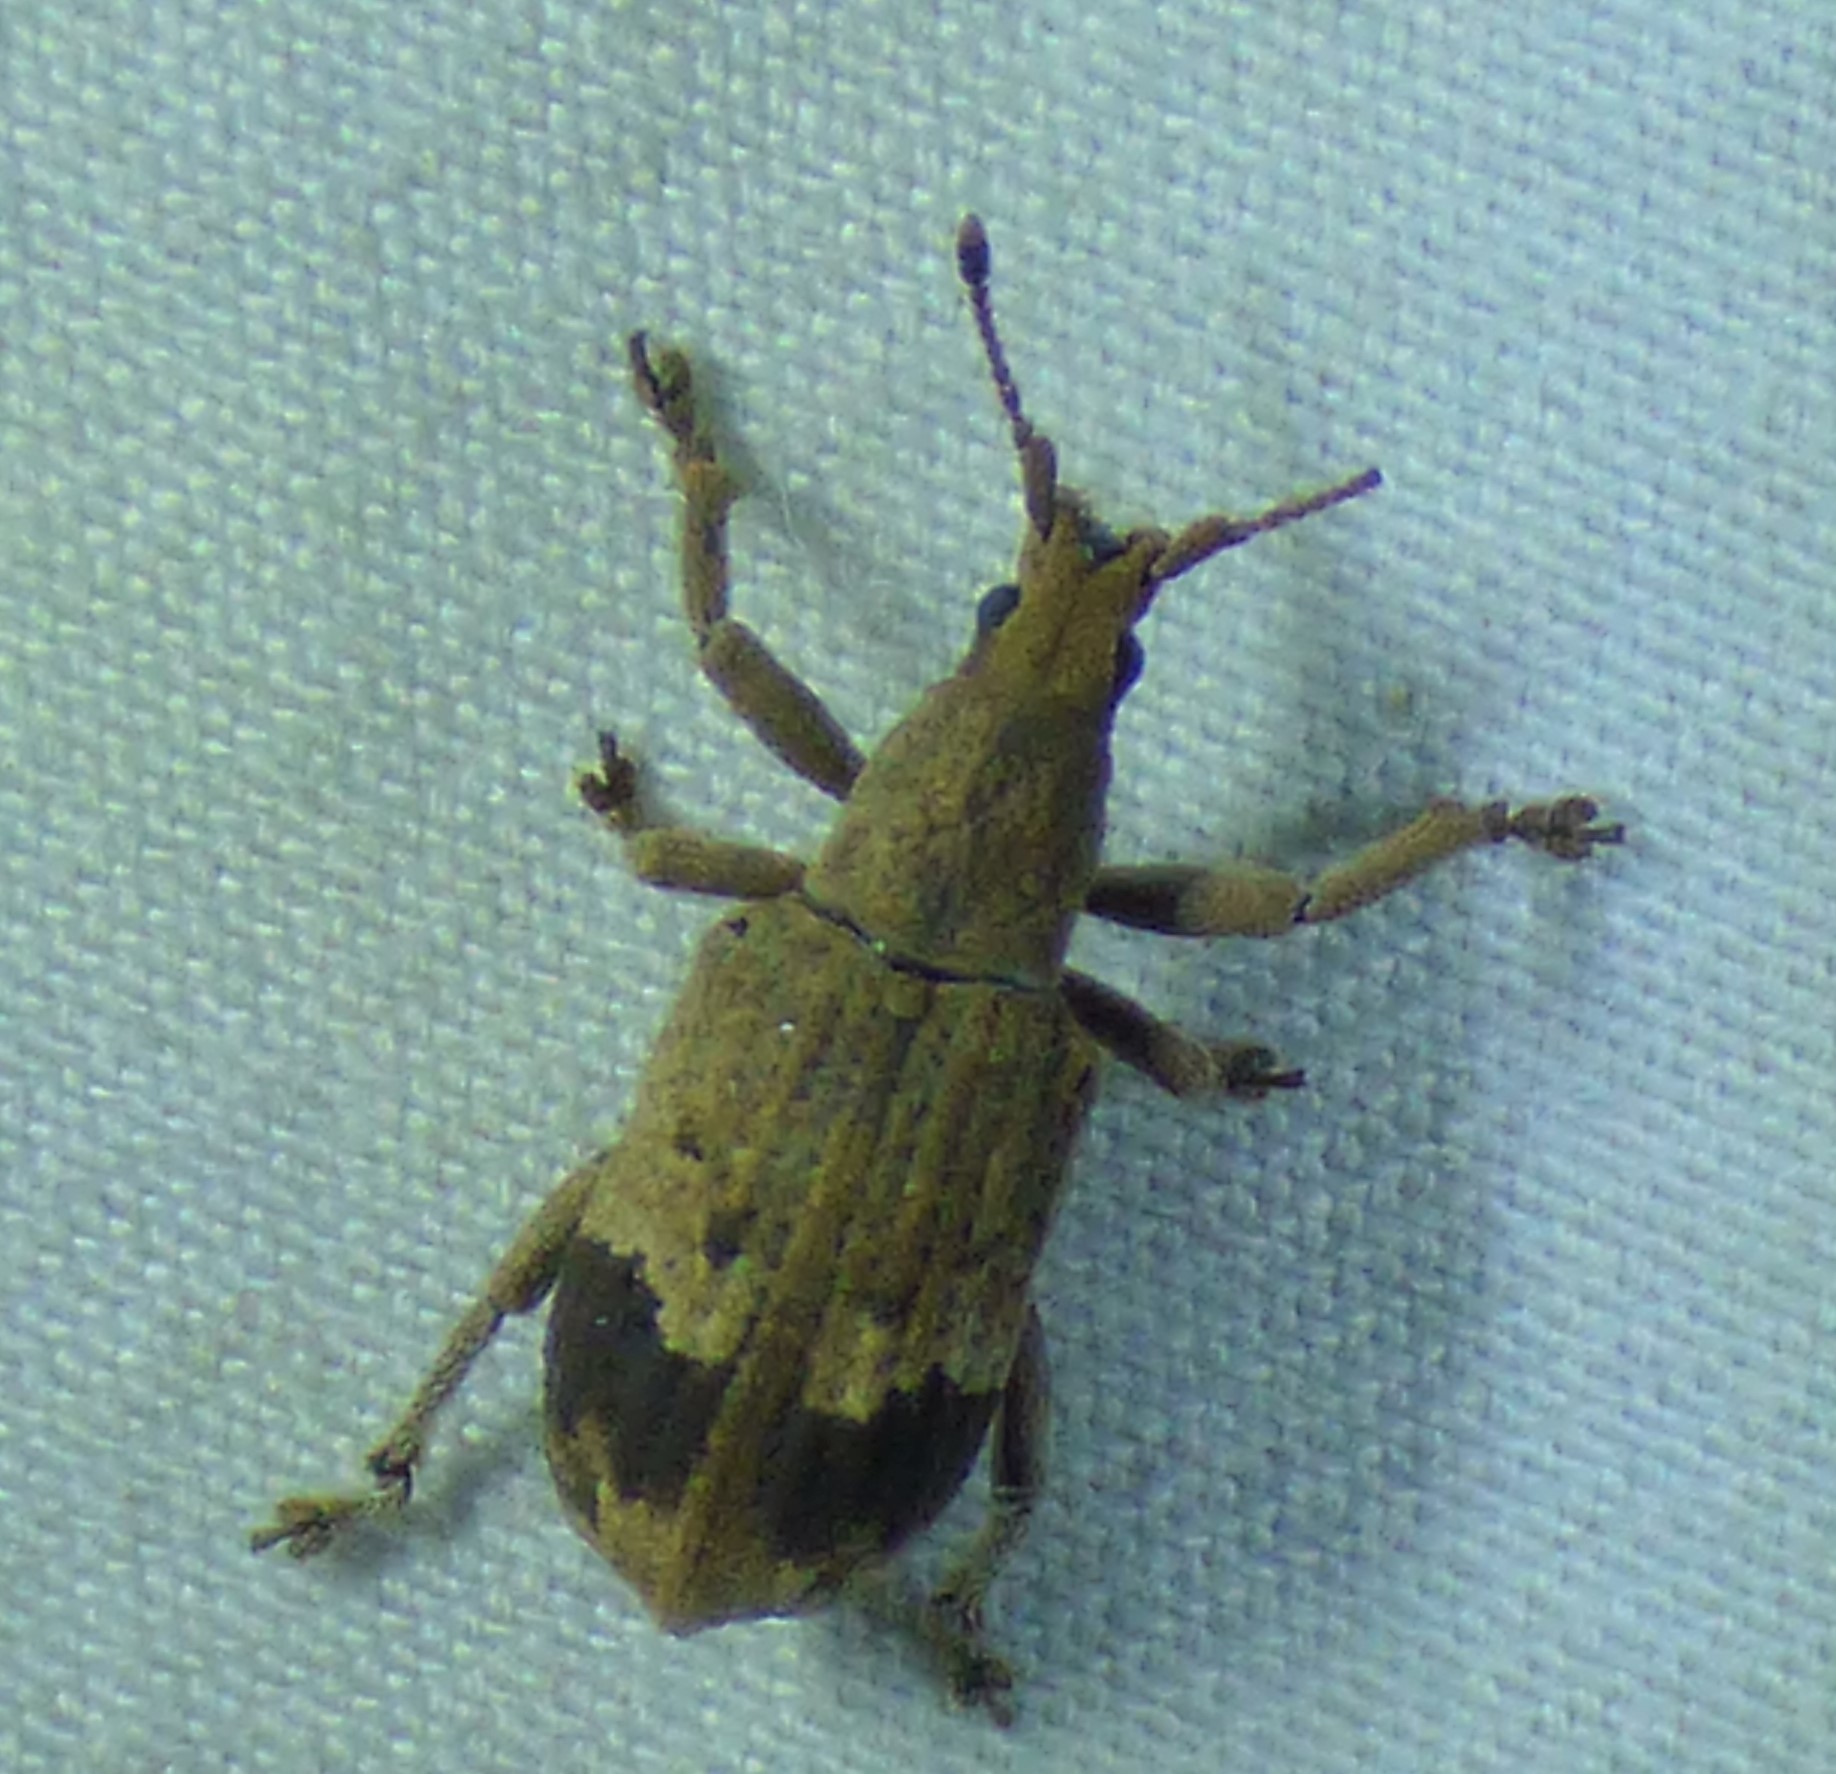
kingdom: Animalia
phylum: Arthropoda
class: Insecta
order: Coleoptera
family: Curculionidae
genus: Brachystylus
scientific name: Brachystylus
